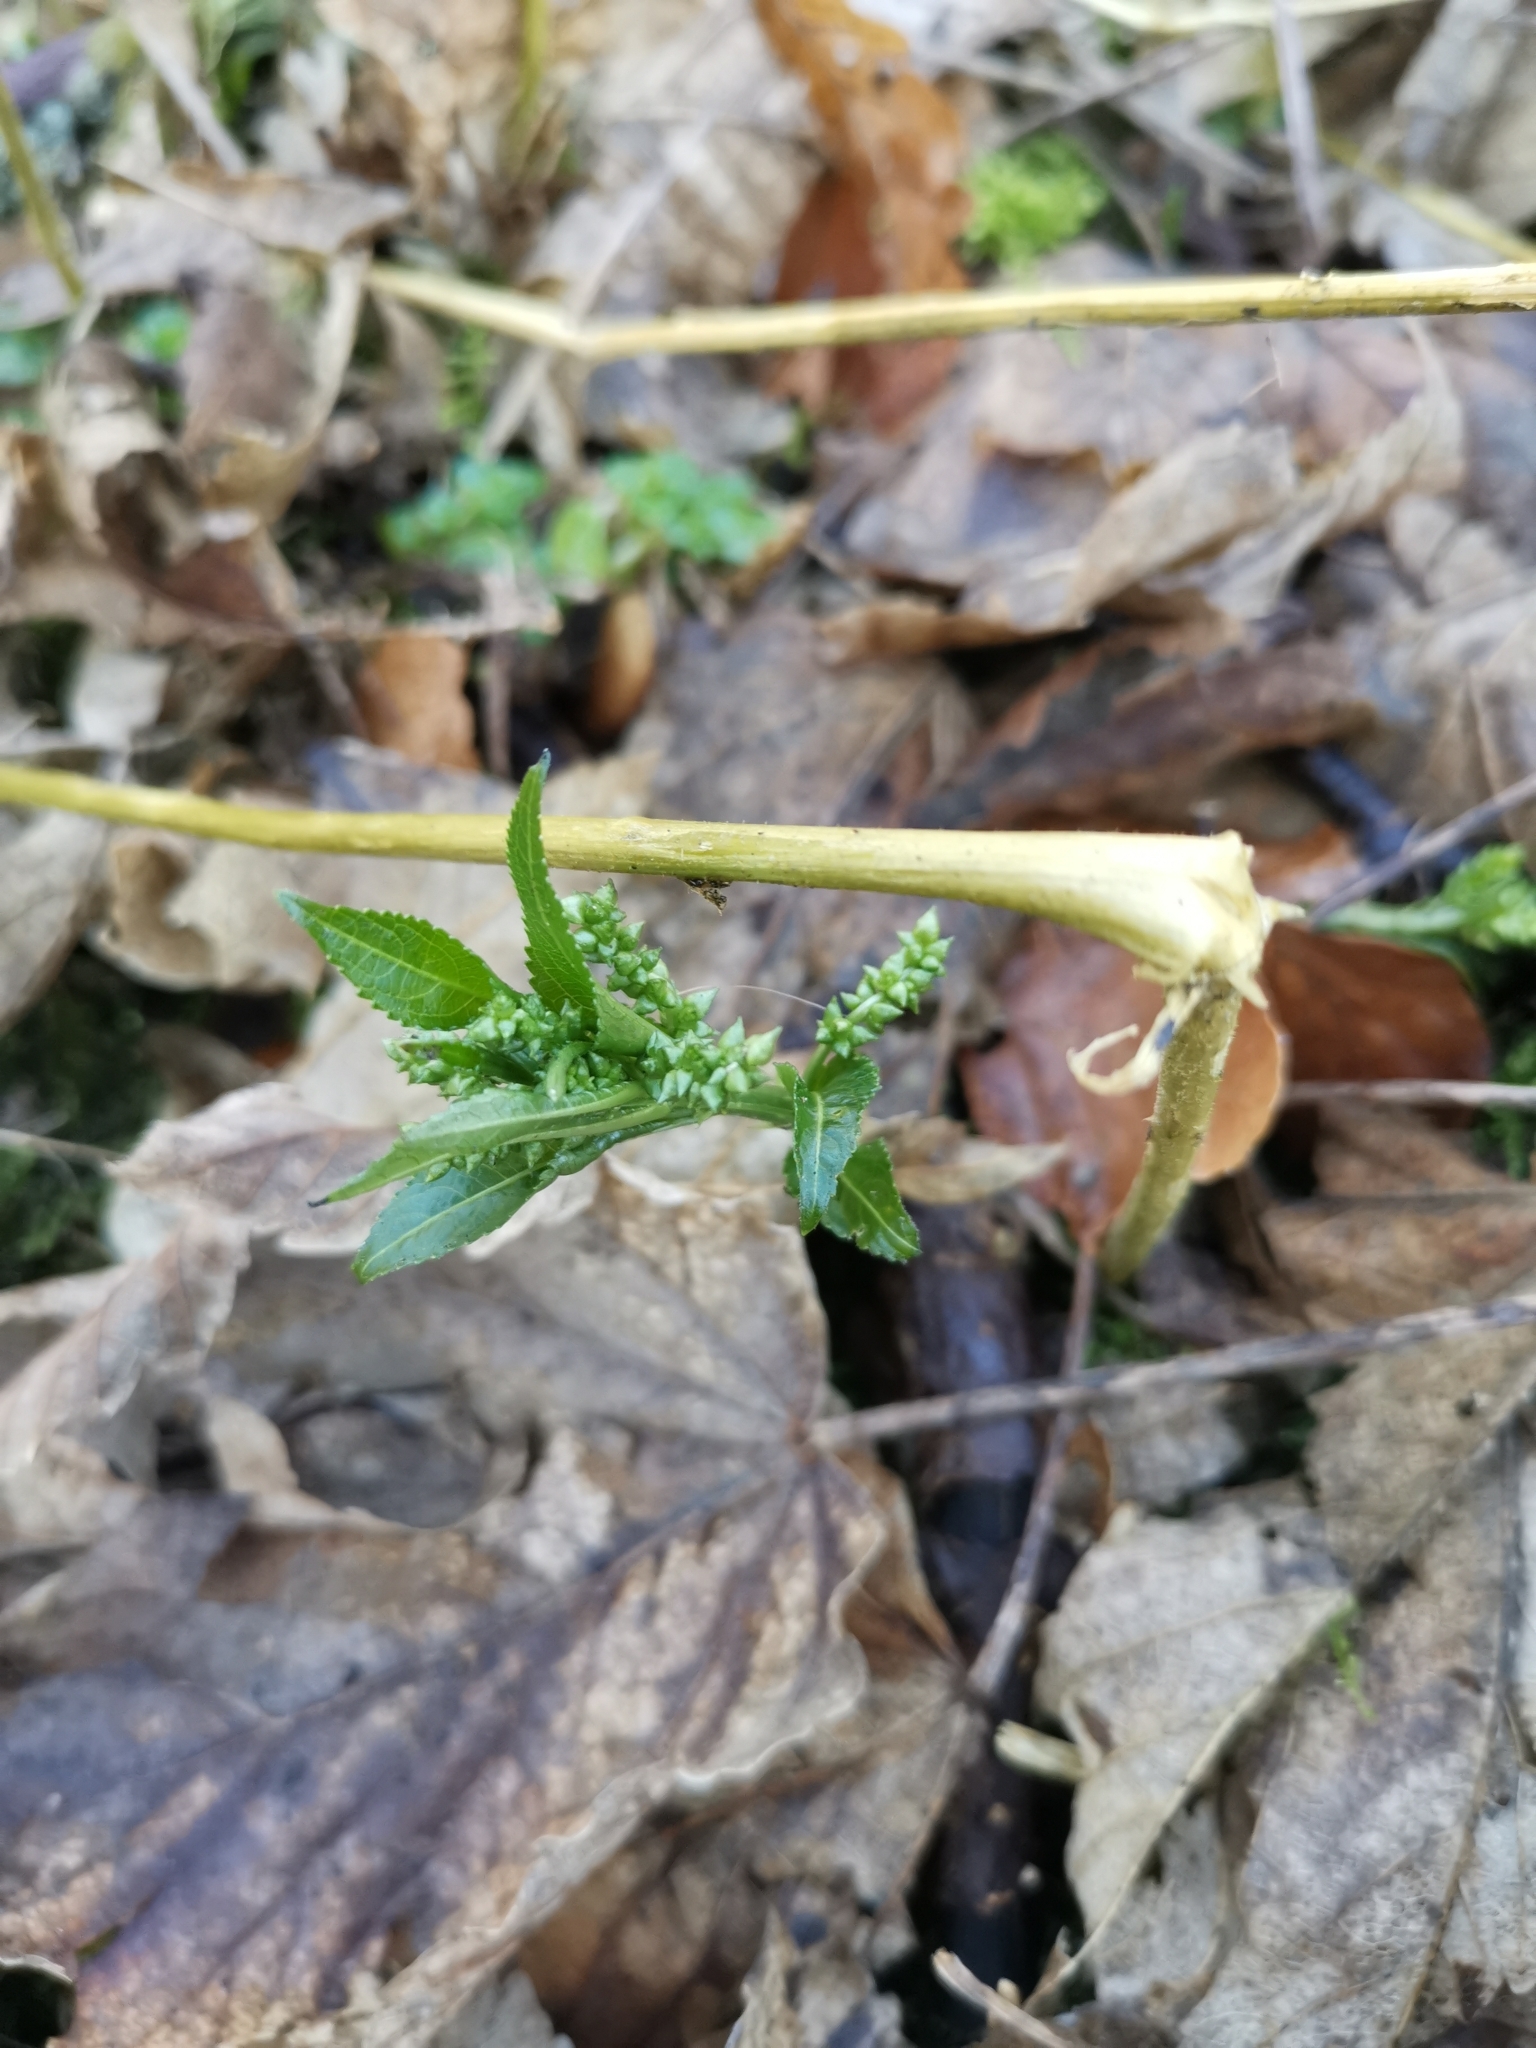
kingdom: Plantae
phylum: Tracheophyta
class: Magnoliopsida
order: Malpighiales
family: Euphorbiaceae
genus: Mercurialis
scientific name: Mercurialis perennis
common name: Dog mercury
